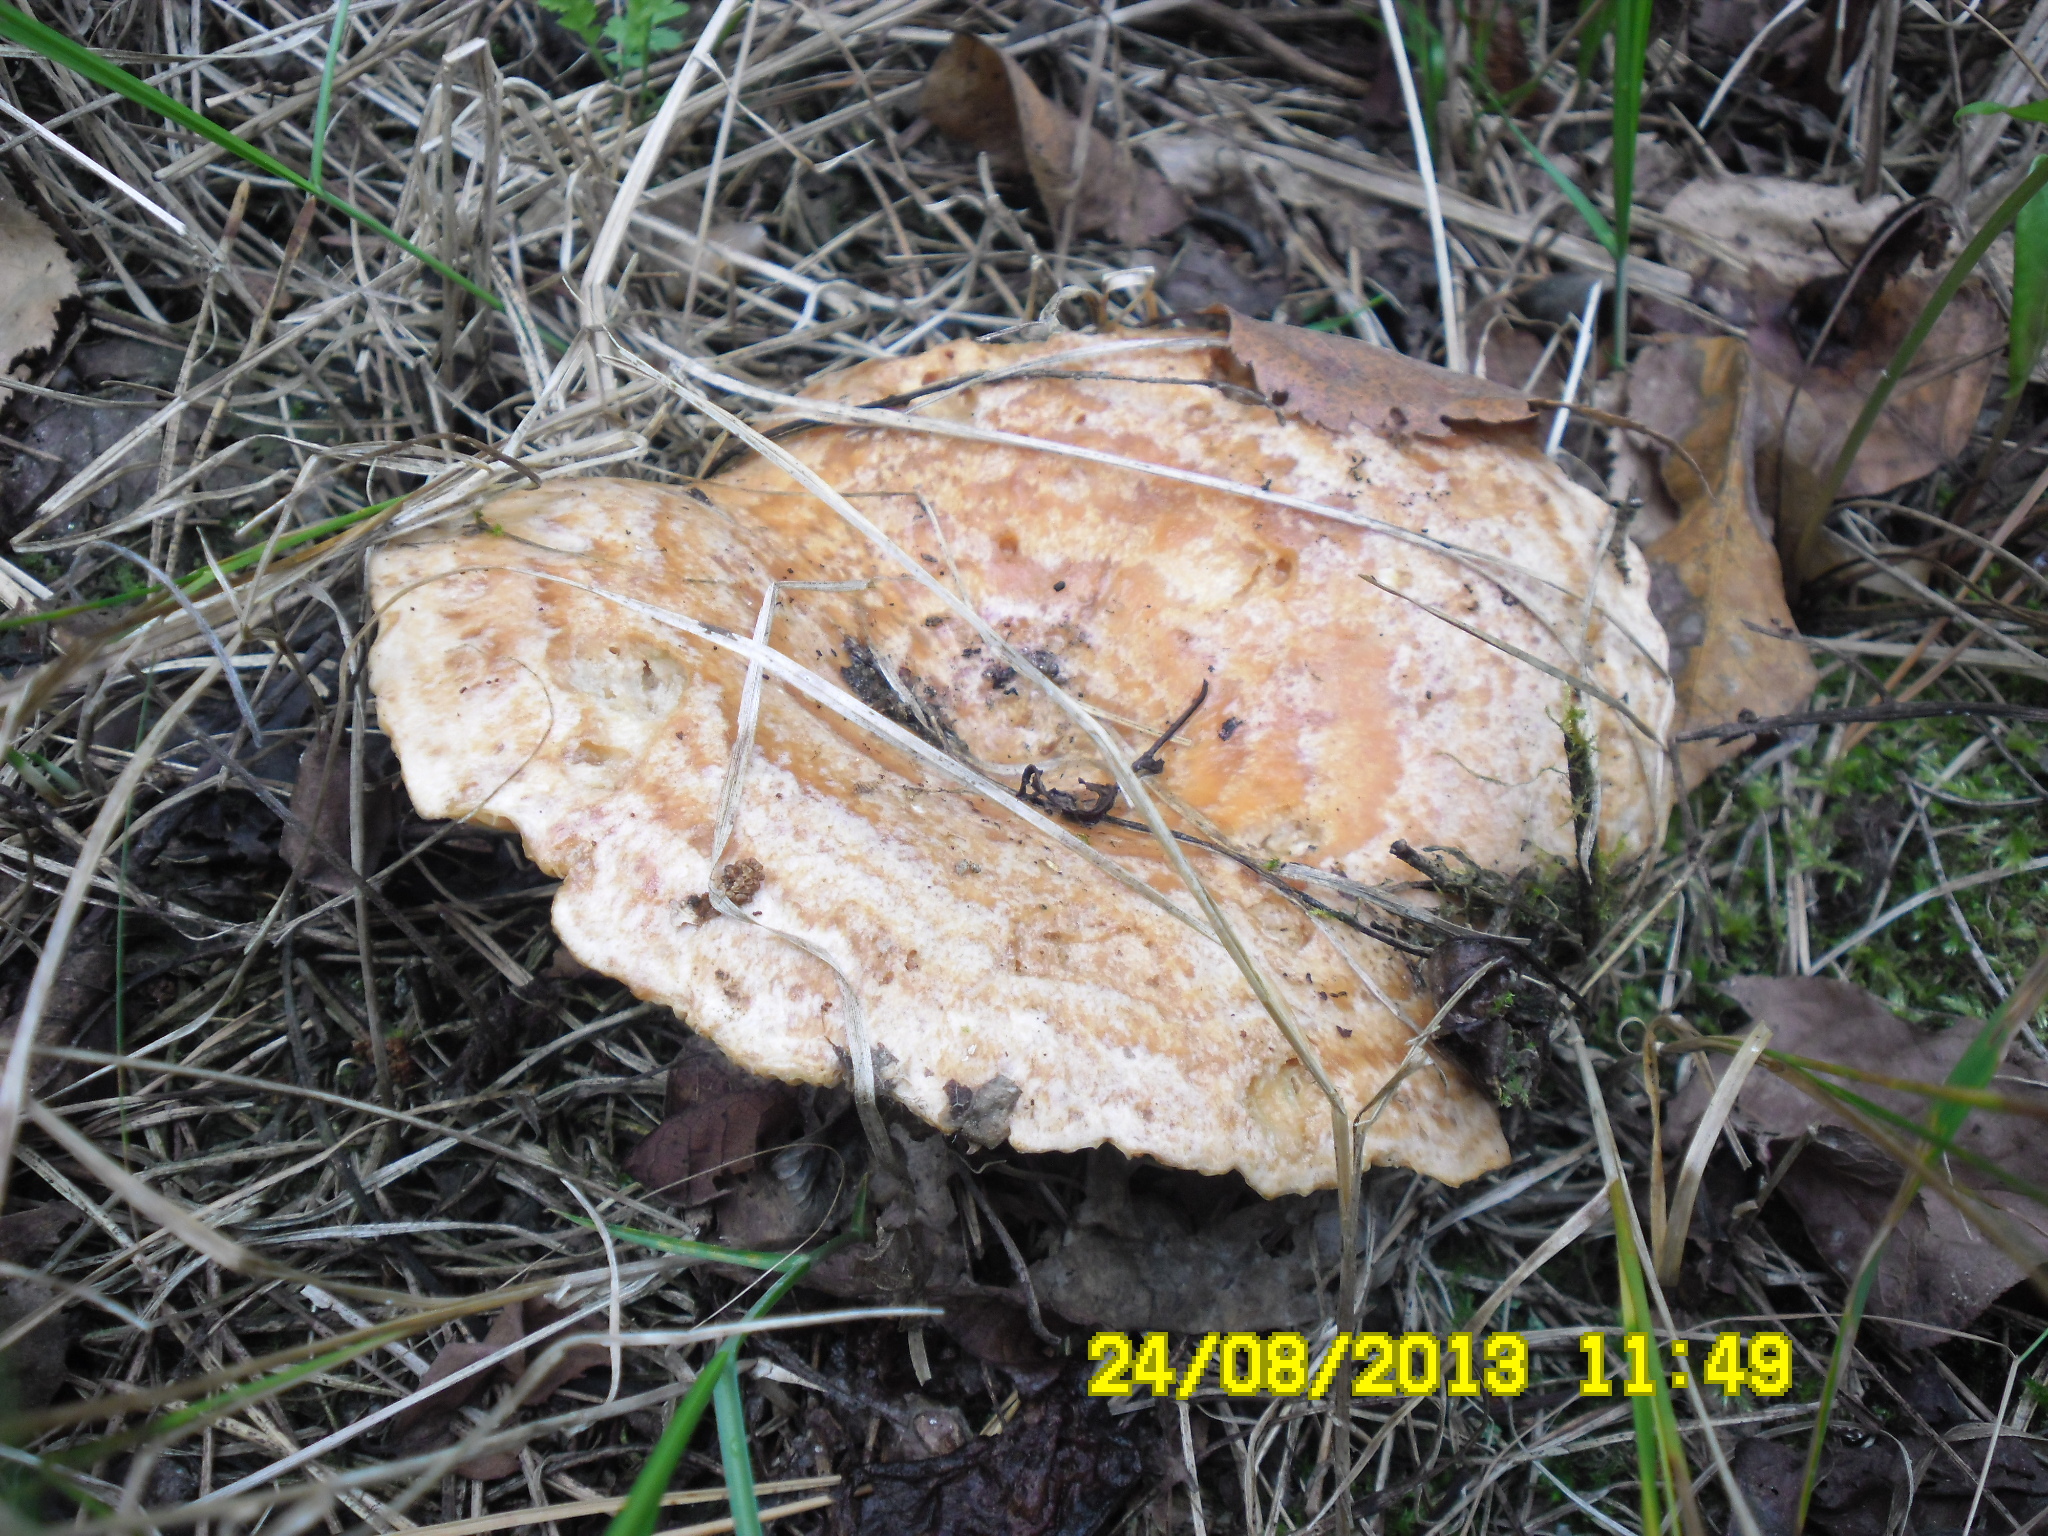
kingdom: Fungi
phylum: Basidiomycota
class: Agaricomycetes
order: Russulales
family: Russulaceae
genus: Lactarius
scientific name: Lactarius deliciosus
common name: Saffron milk-cap
